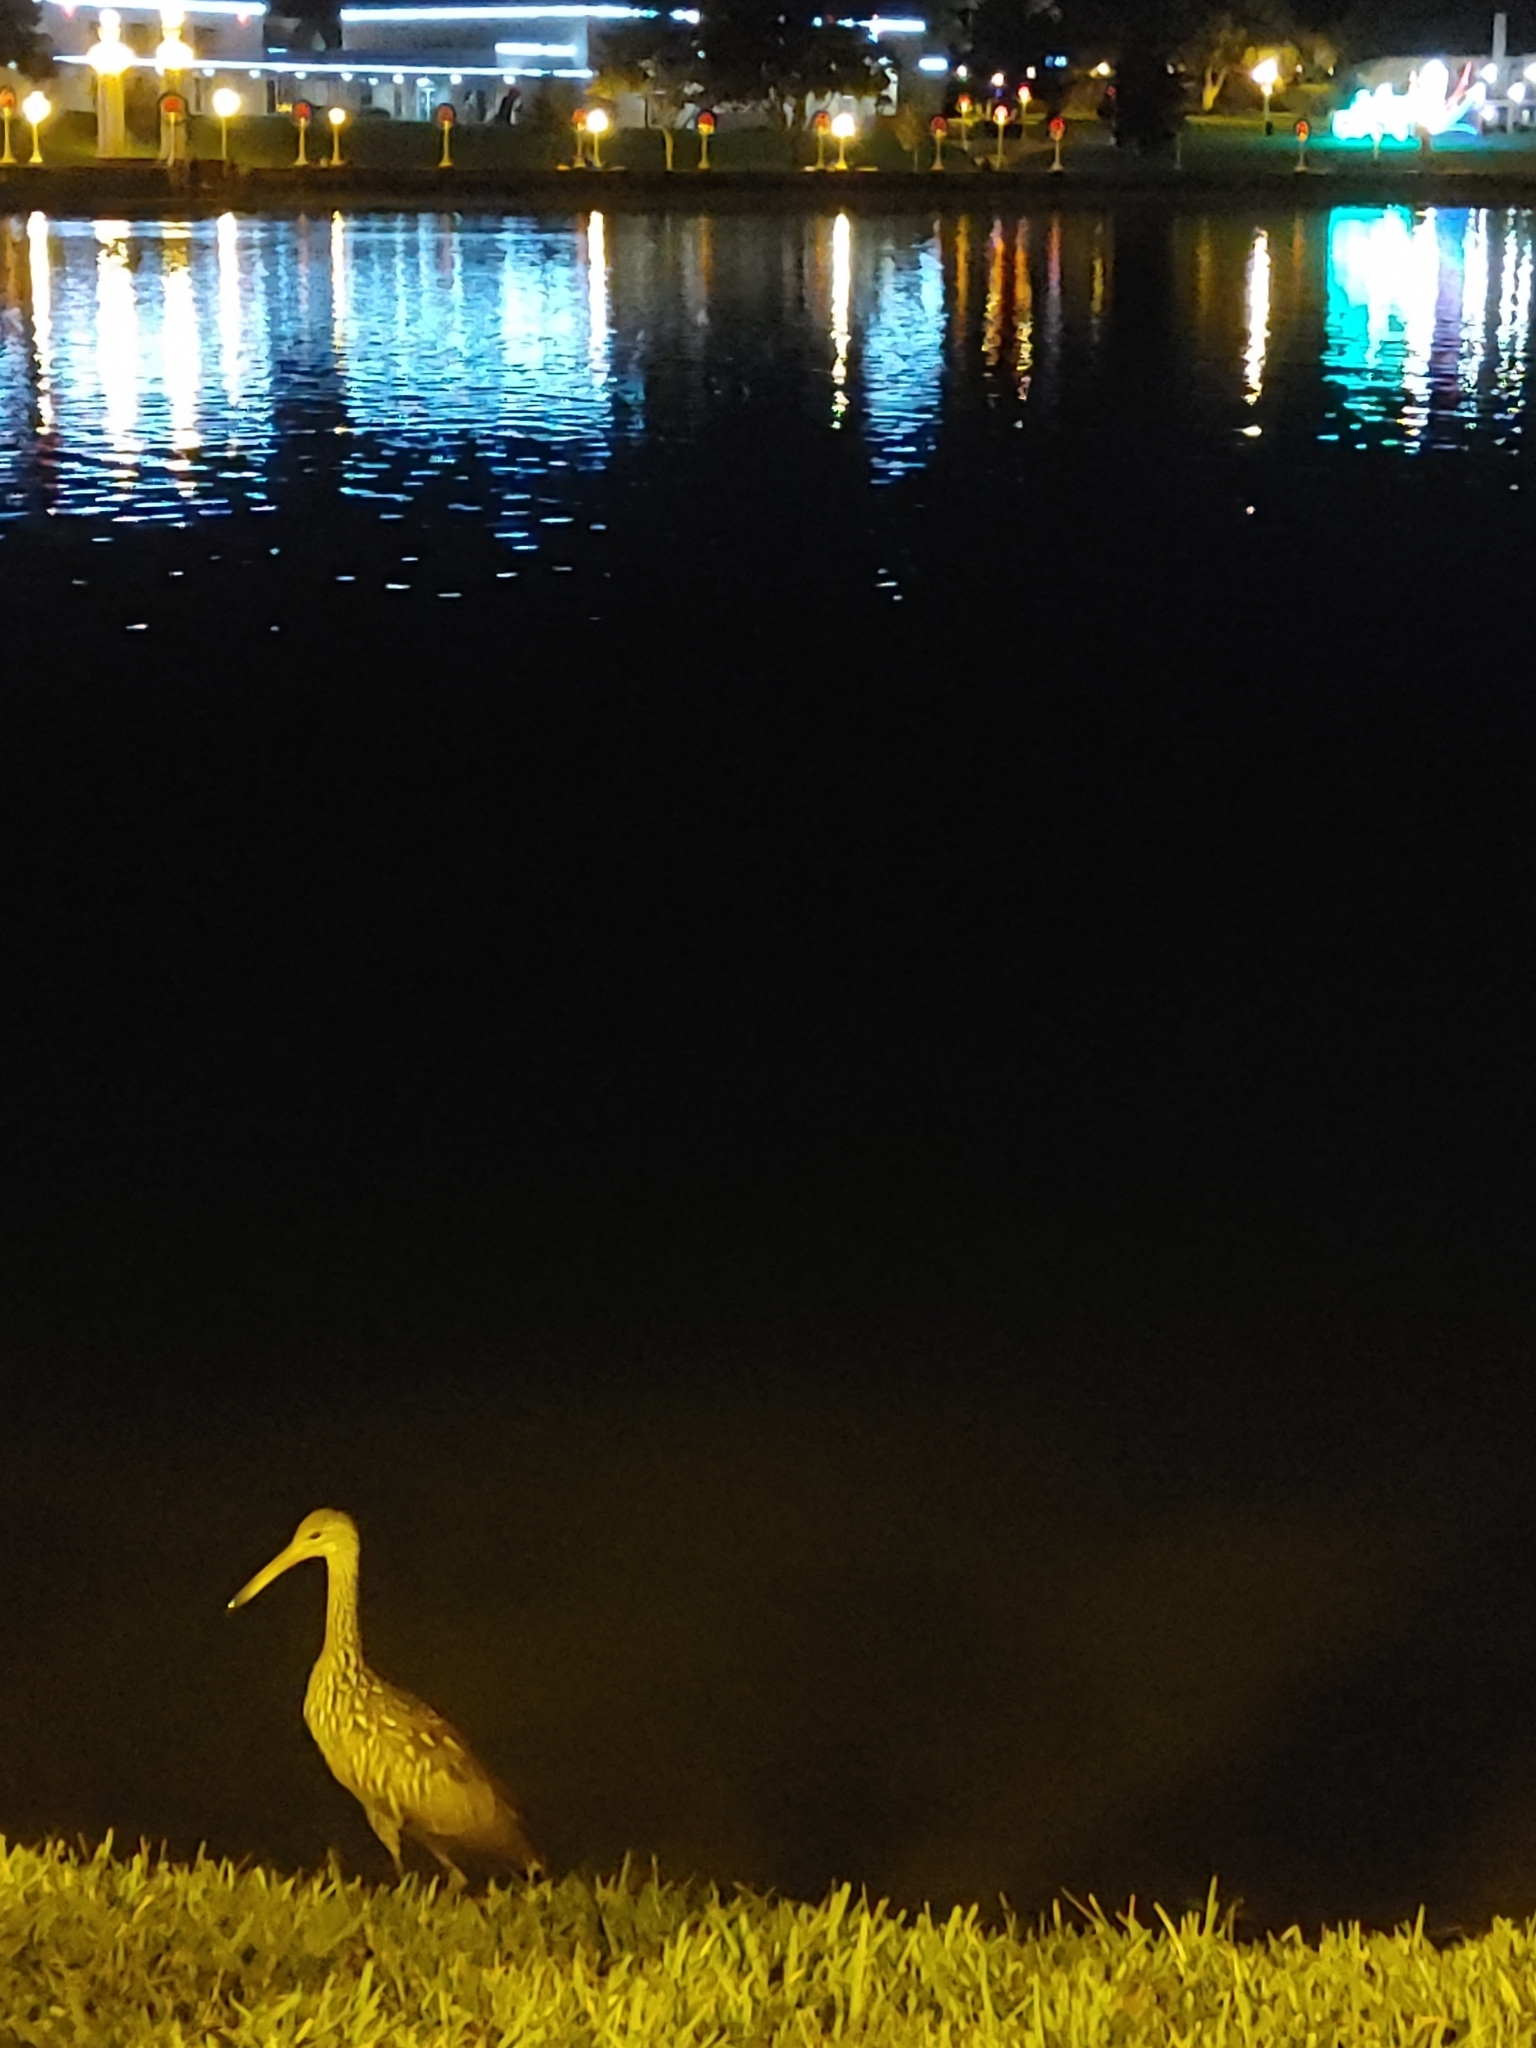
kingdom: Animalia
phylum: Chordata
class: Aves
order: Gruiformes
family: Aramidae
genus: Aramus
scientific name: Aramus guarauna
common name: Limpkin
